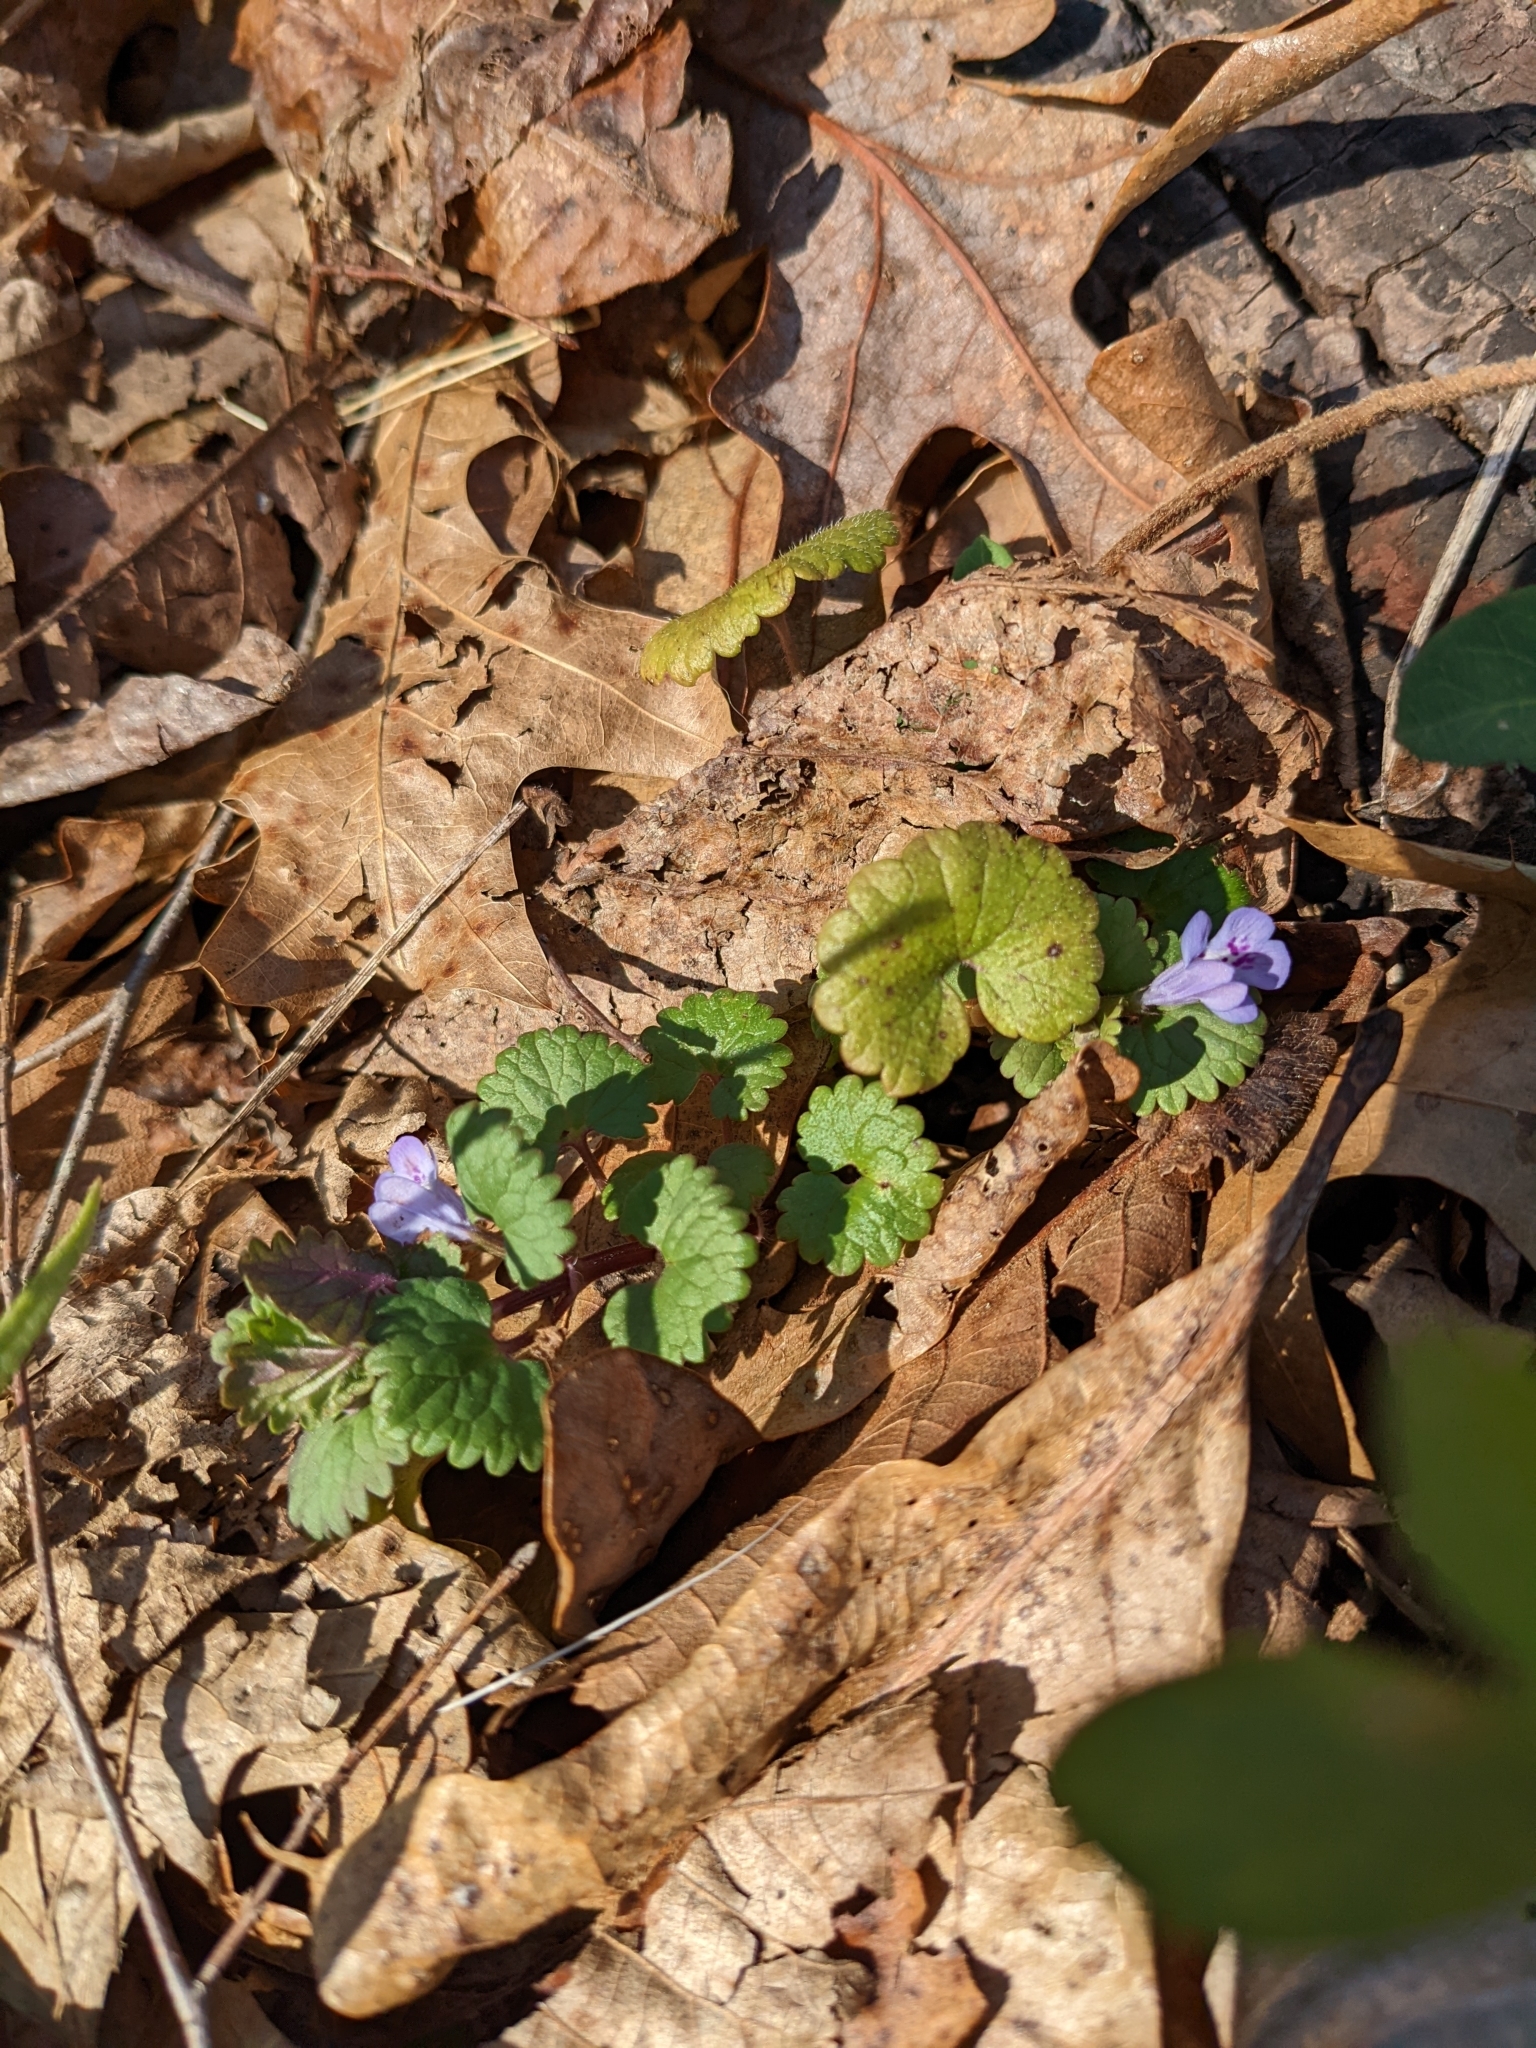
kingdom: Plantae
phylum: Tracheophyta
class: Magnoliopsida
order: Lamiales
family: Lamiaceae
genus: Glechoma
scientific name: Glechoma hederacea
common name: Ground ivy
